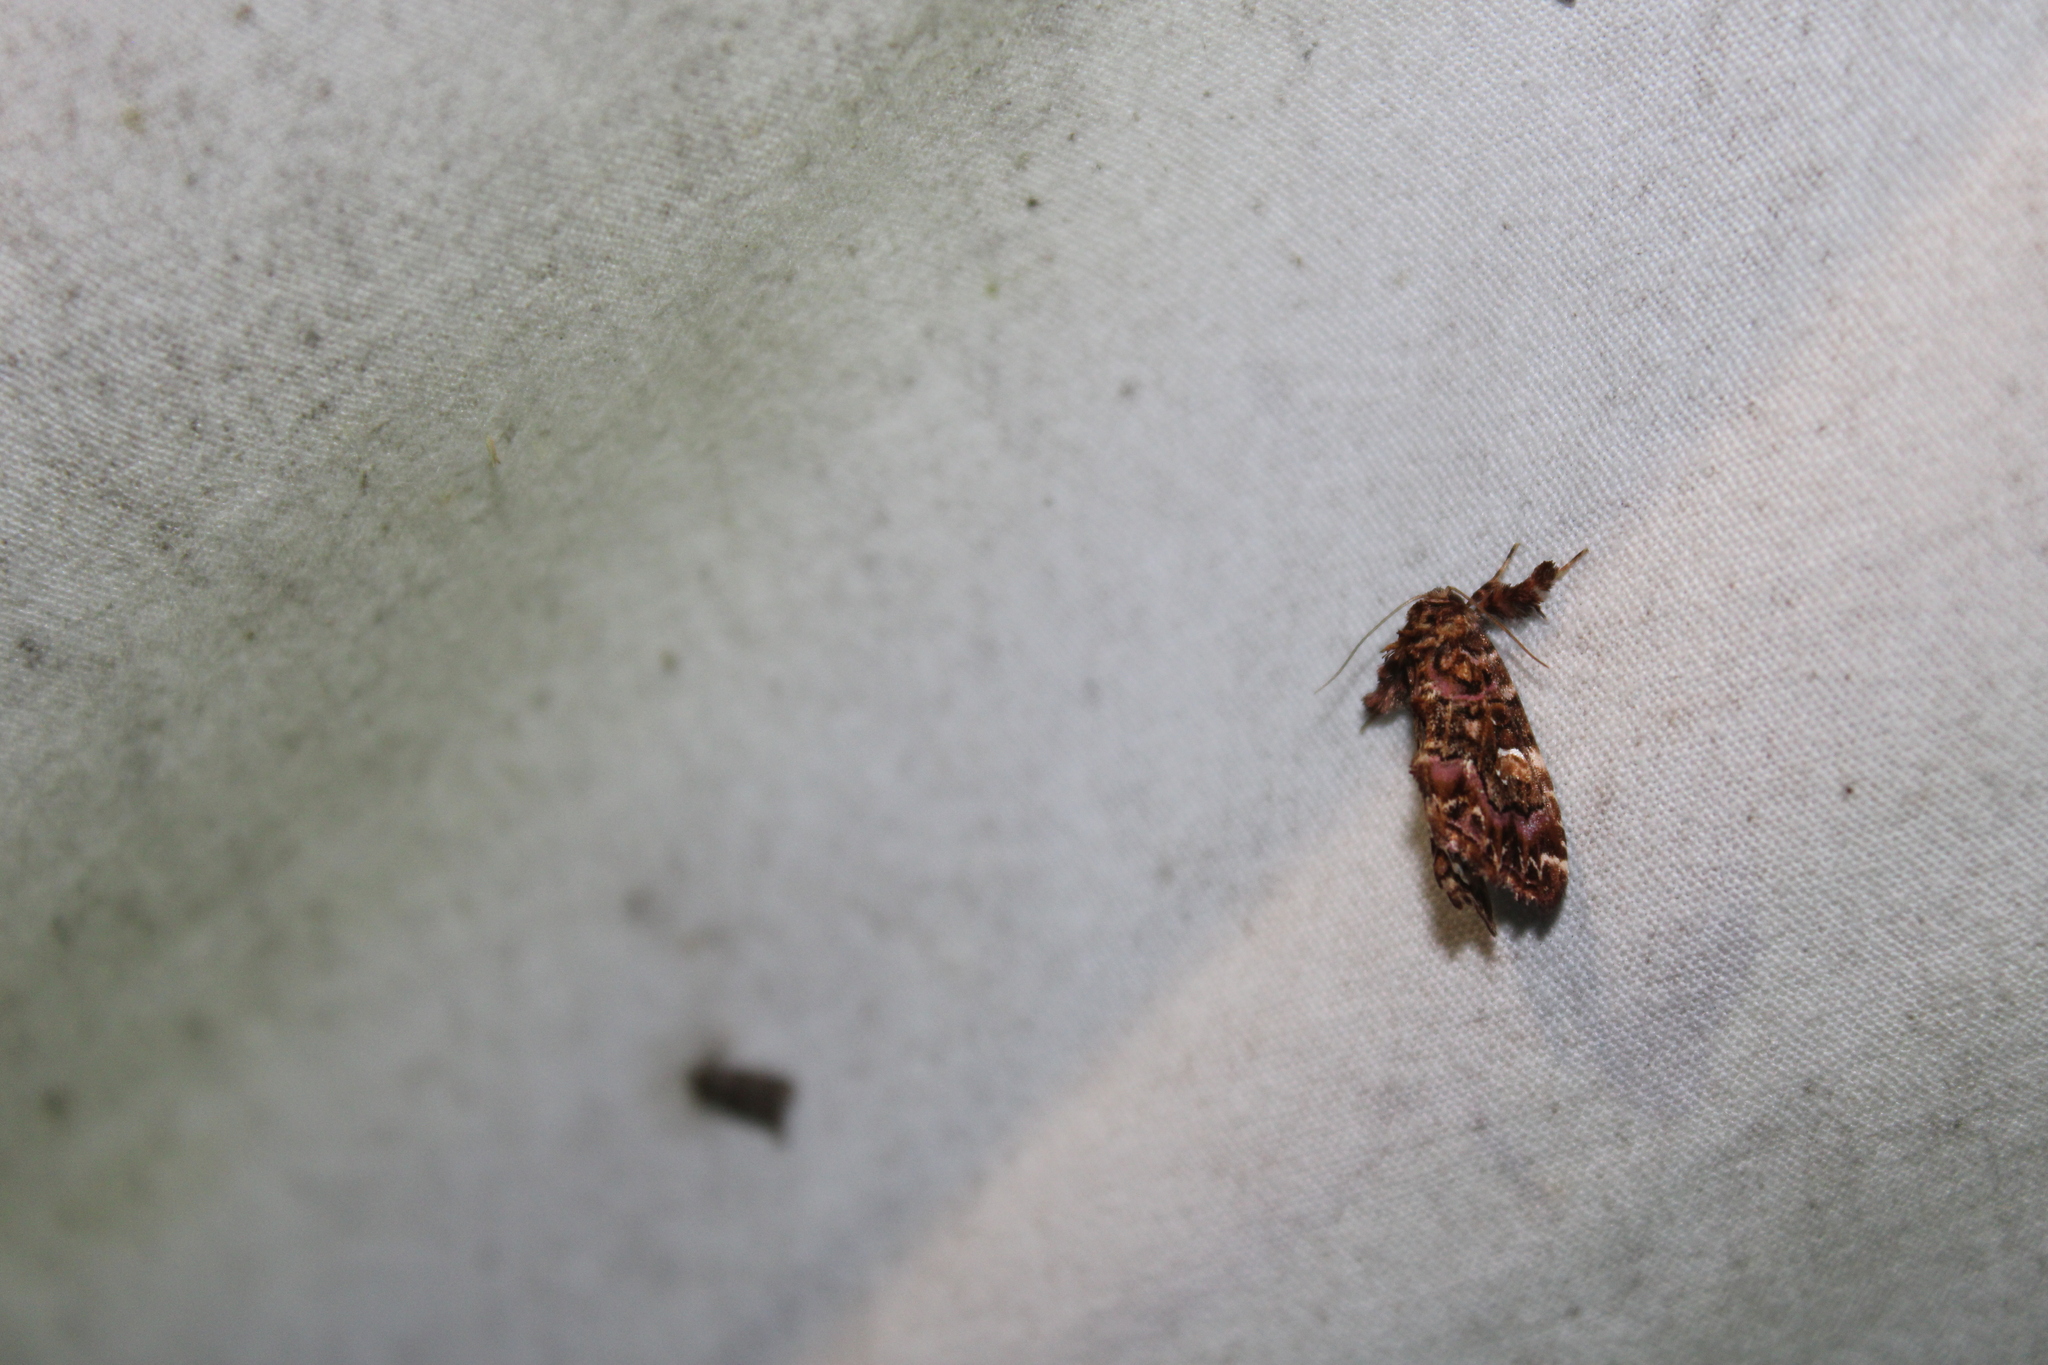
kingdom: Animalia
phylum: Arthropoda
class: Insecta
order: Lepidoptera
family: Noctuidae
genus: Callopistria
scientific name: Callopistria mollissima
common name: Pink-shaded fern moth
